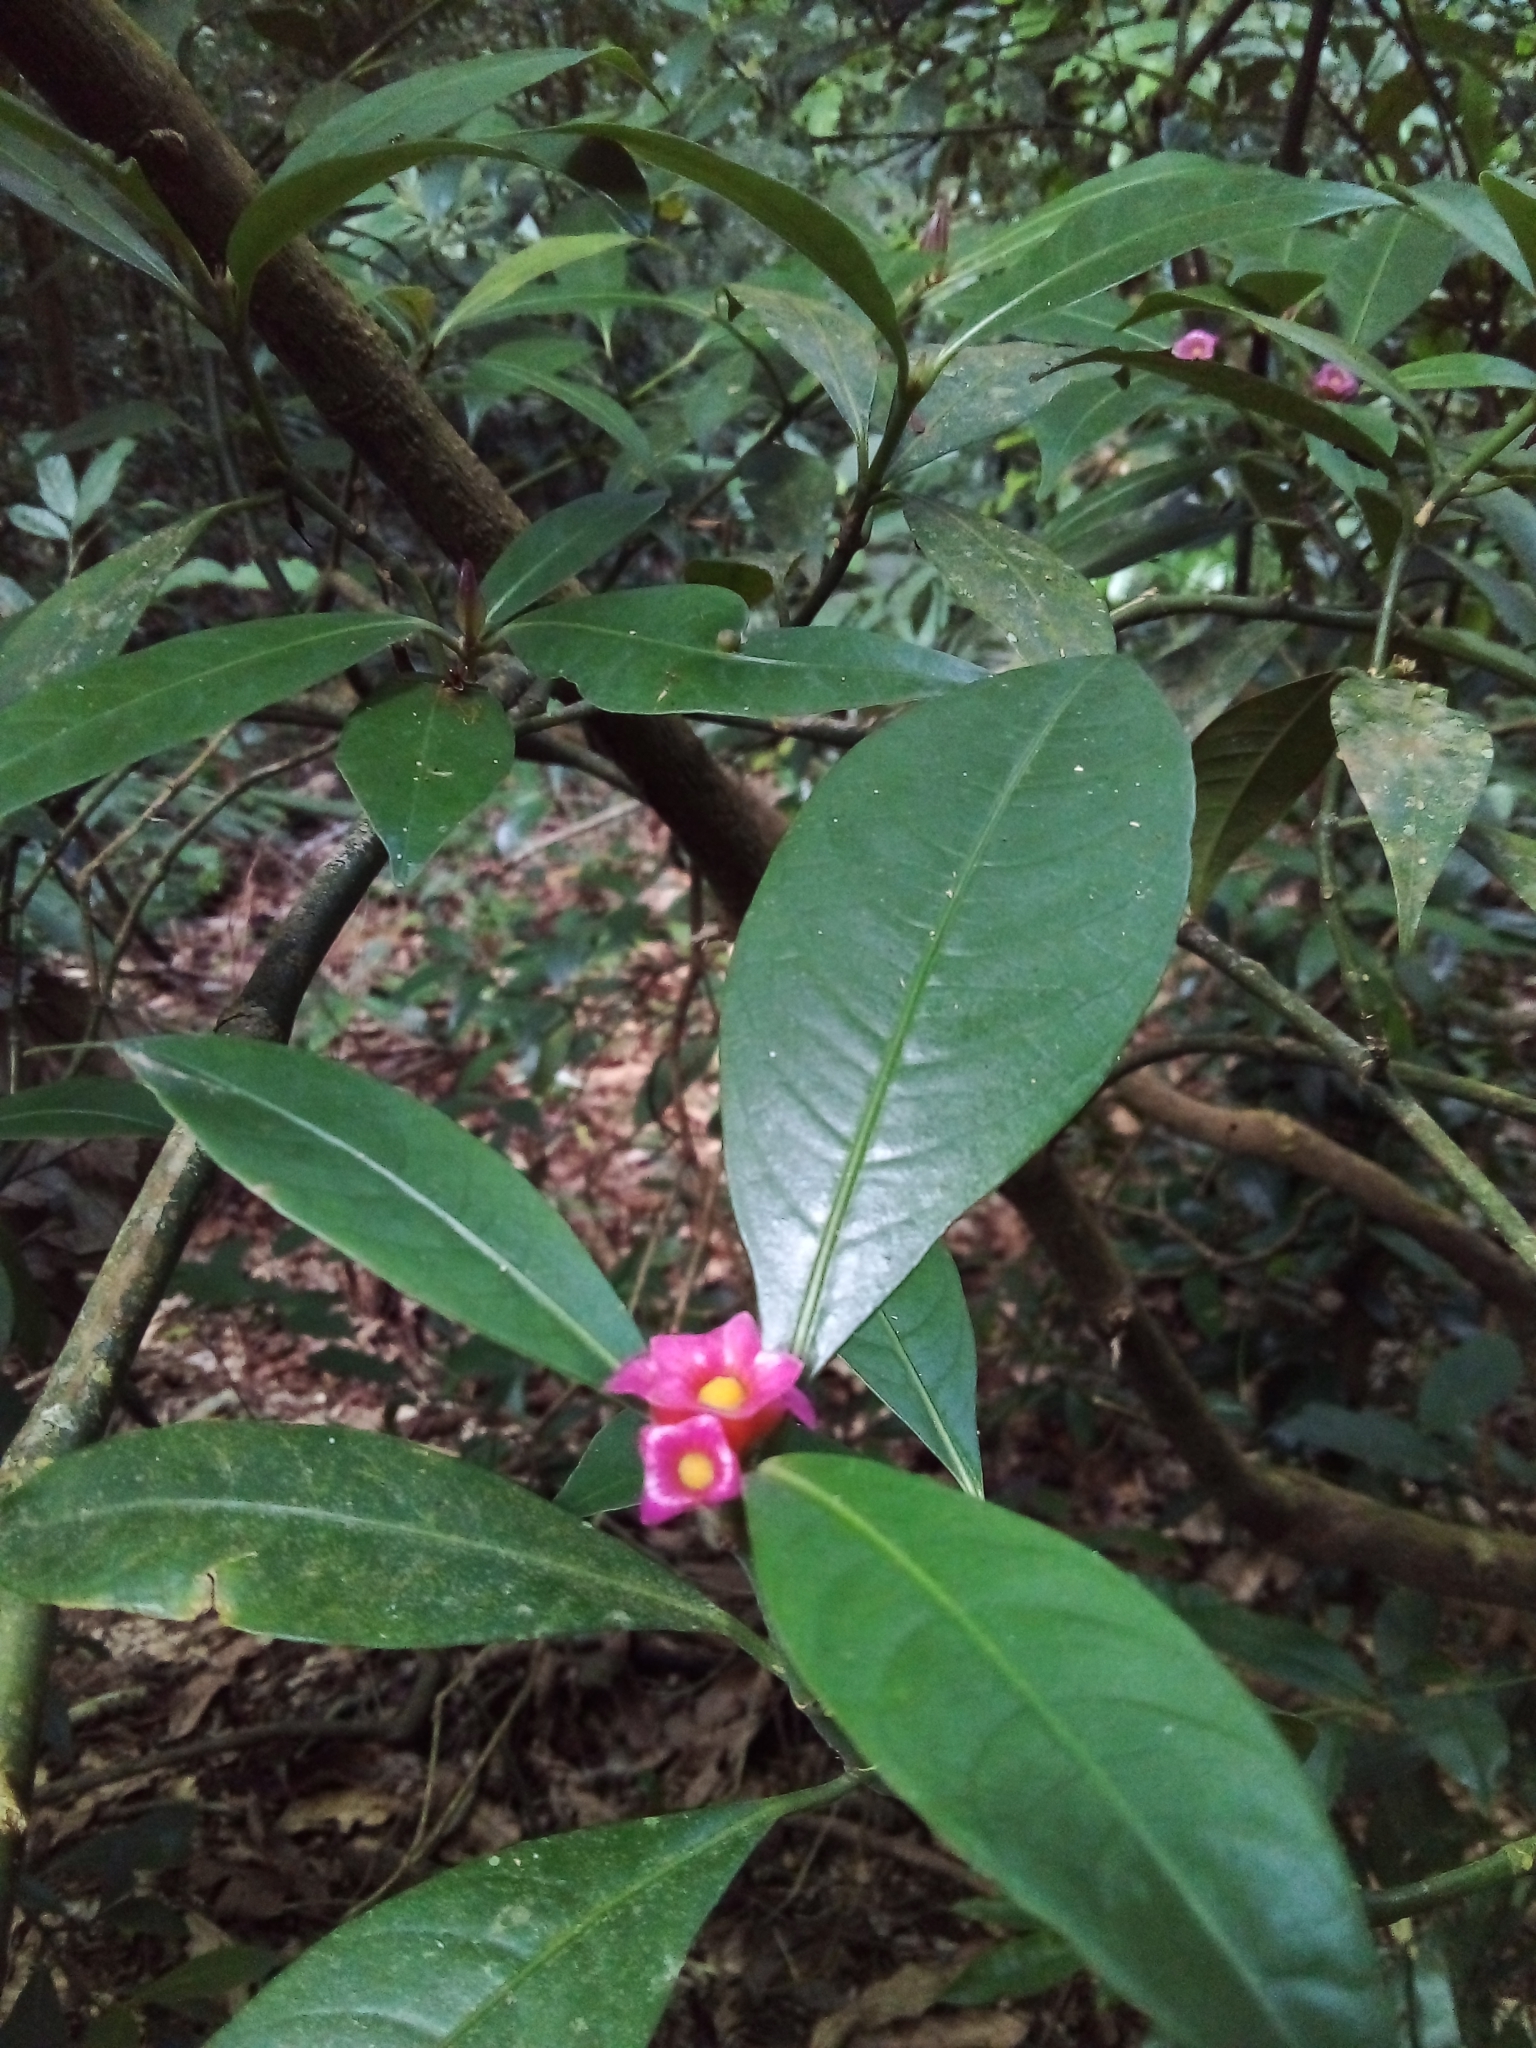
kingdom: Plantae
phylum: Tracheophyta
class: Magnoliopsida
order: Gentianales
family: Rubiaceae
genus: Psychotria
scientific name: Psychotria nuda
